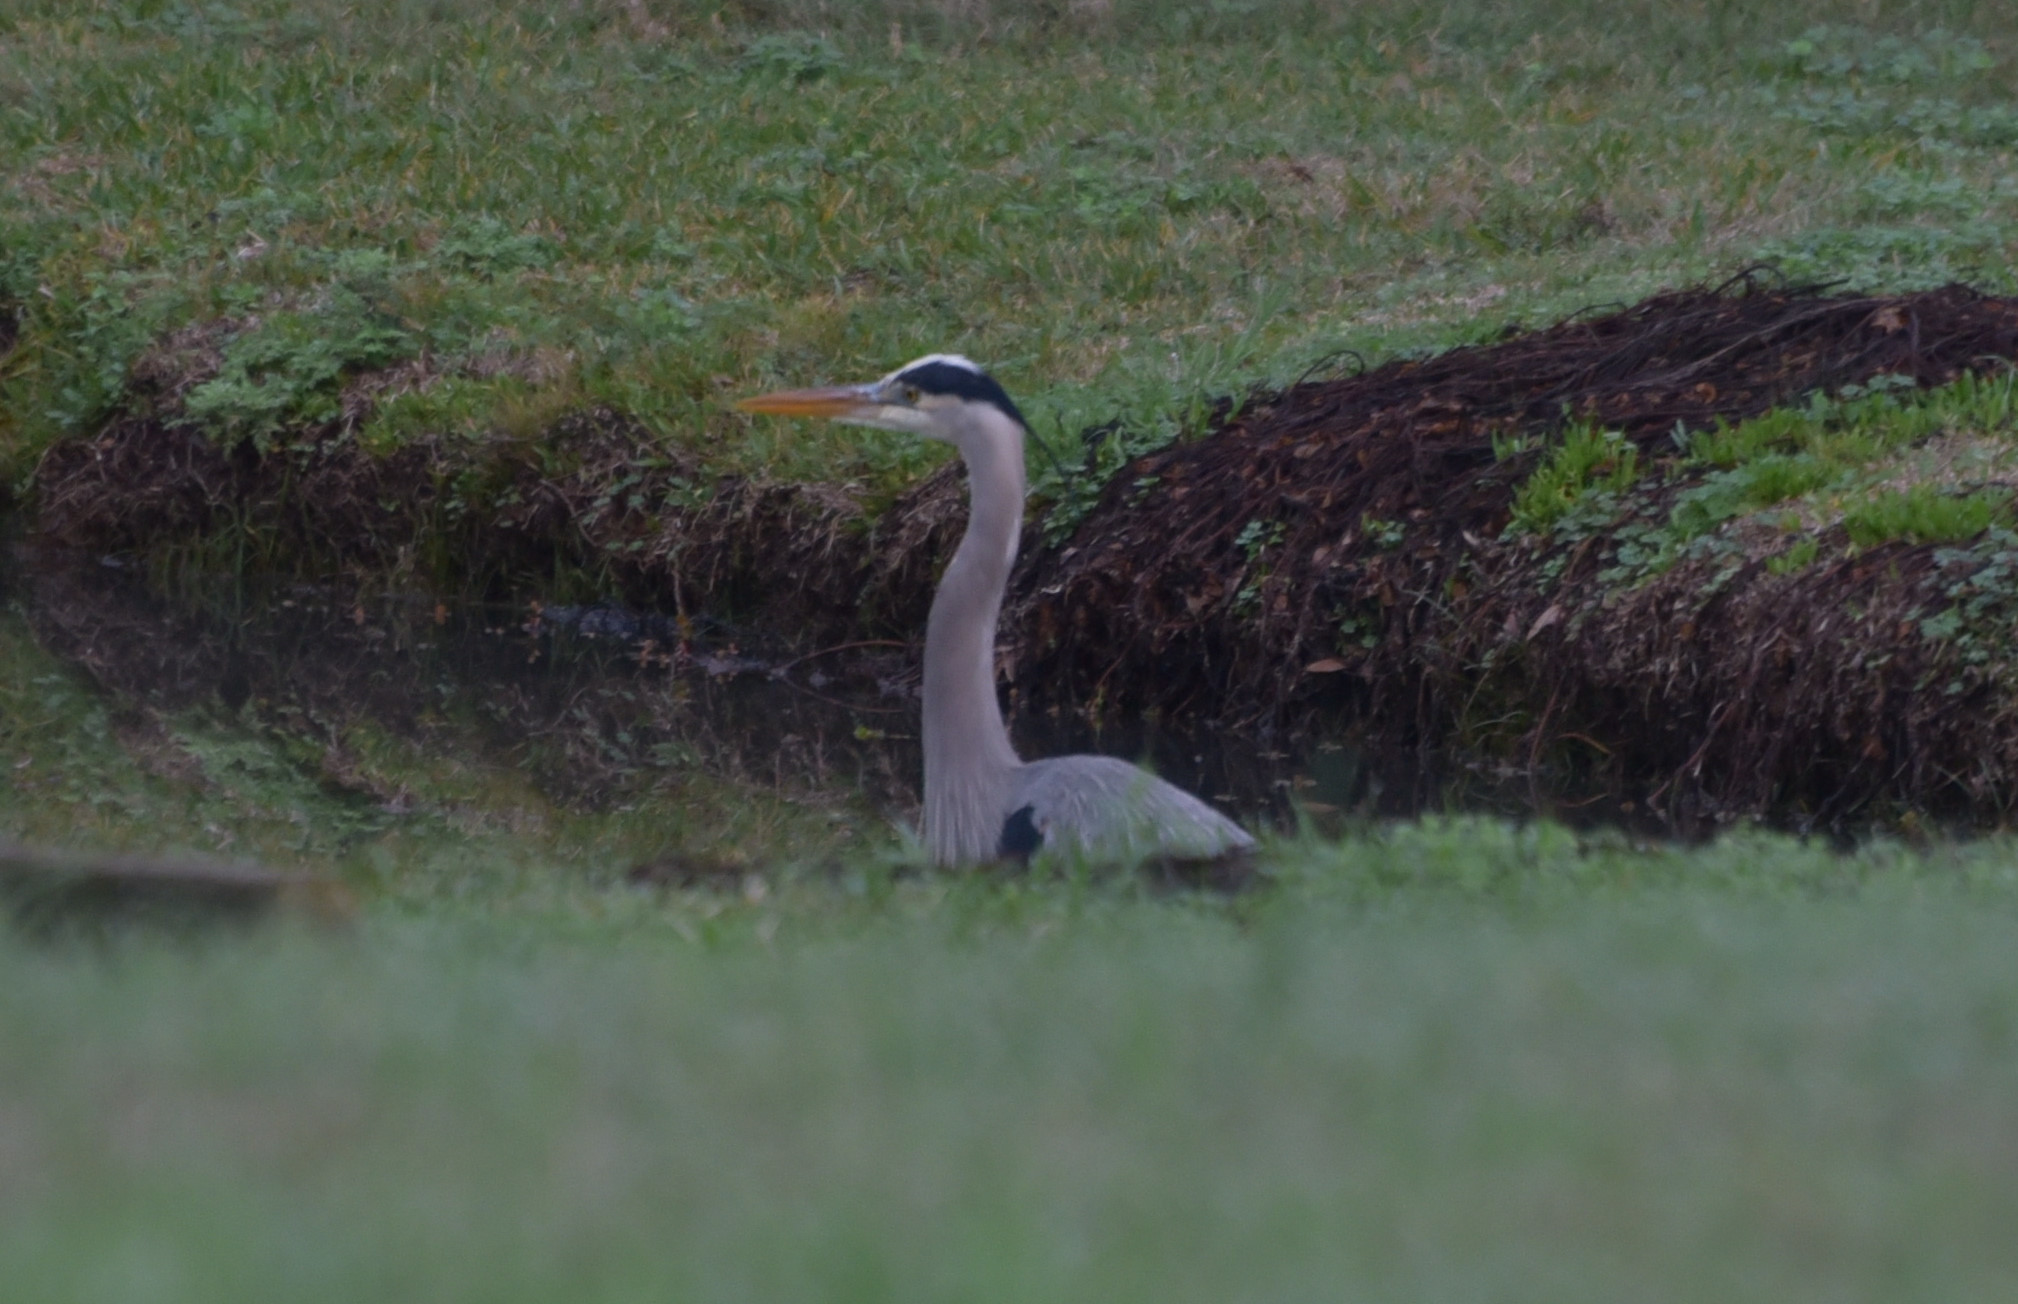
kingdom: Animalia
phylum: Chordata
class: Aves
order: Pelecaniformes
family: Ardeidae
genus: Ardea
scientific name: Ardea herodias
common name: Great blue heron
